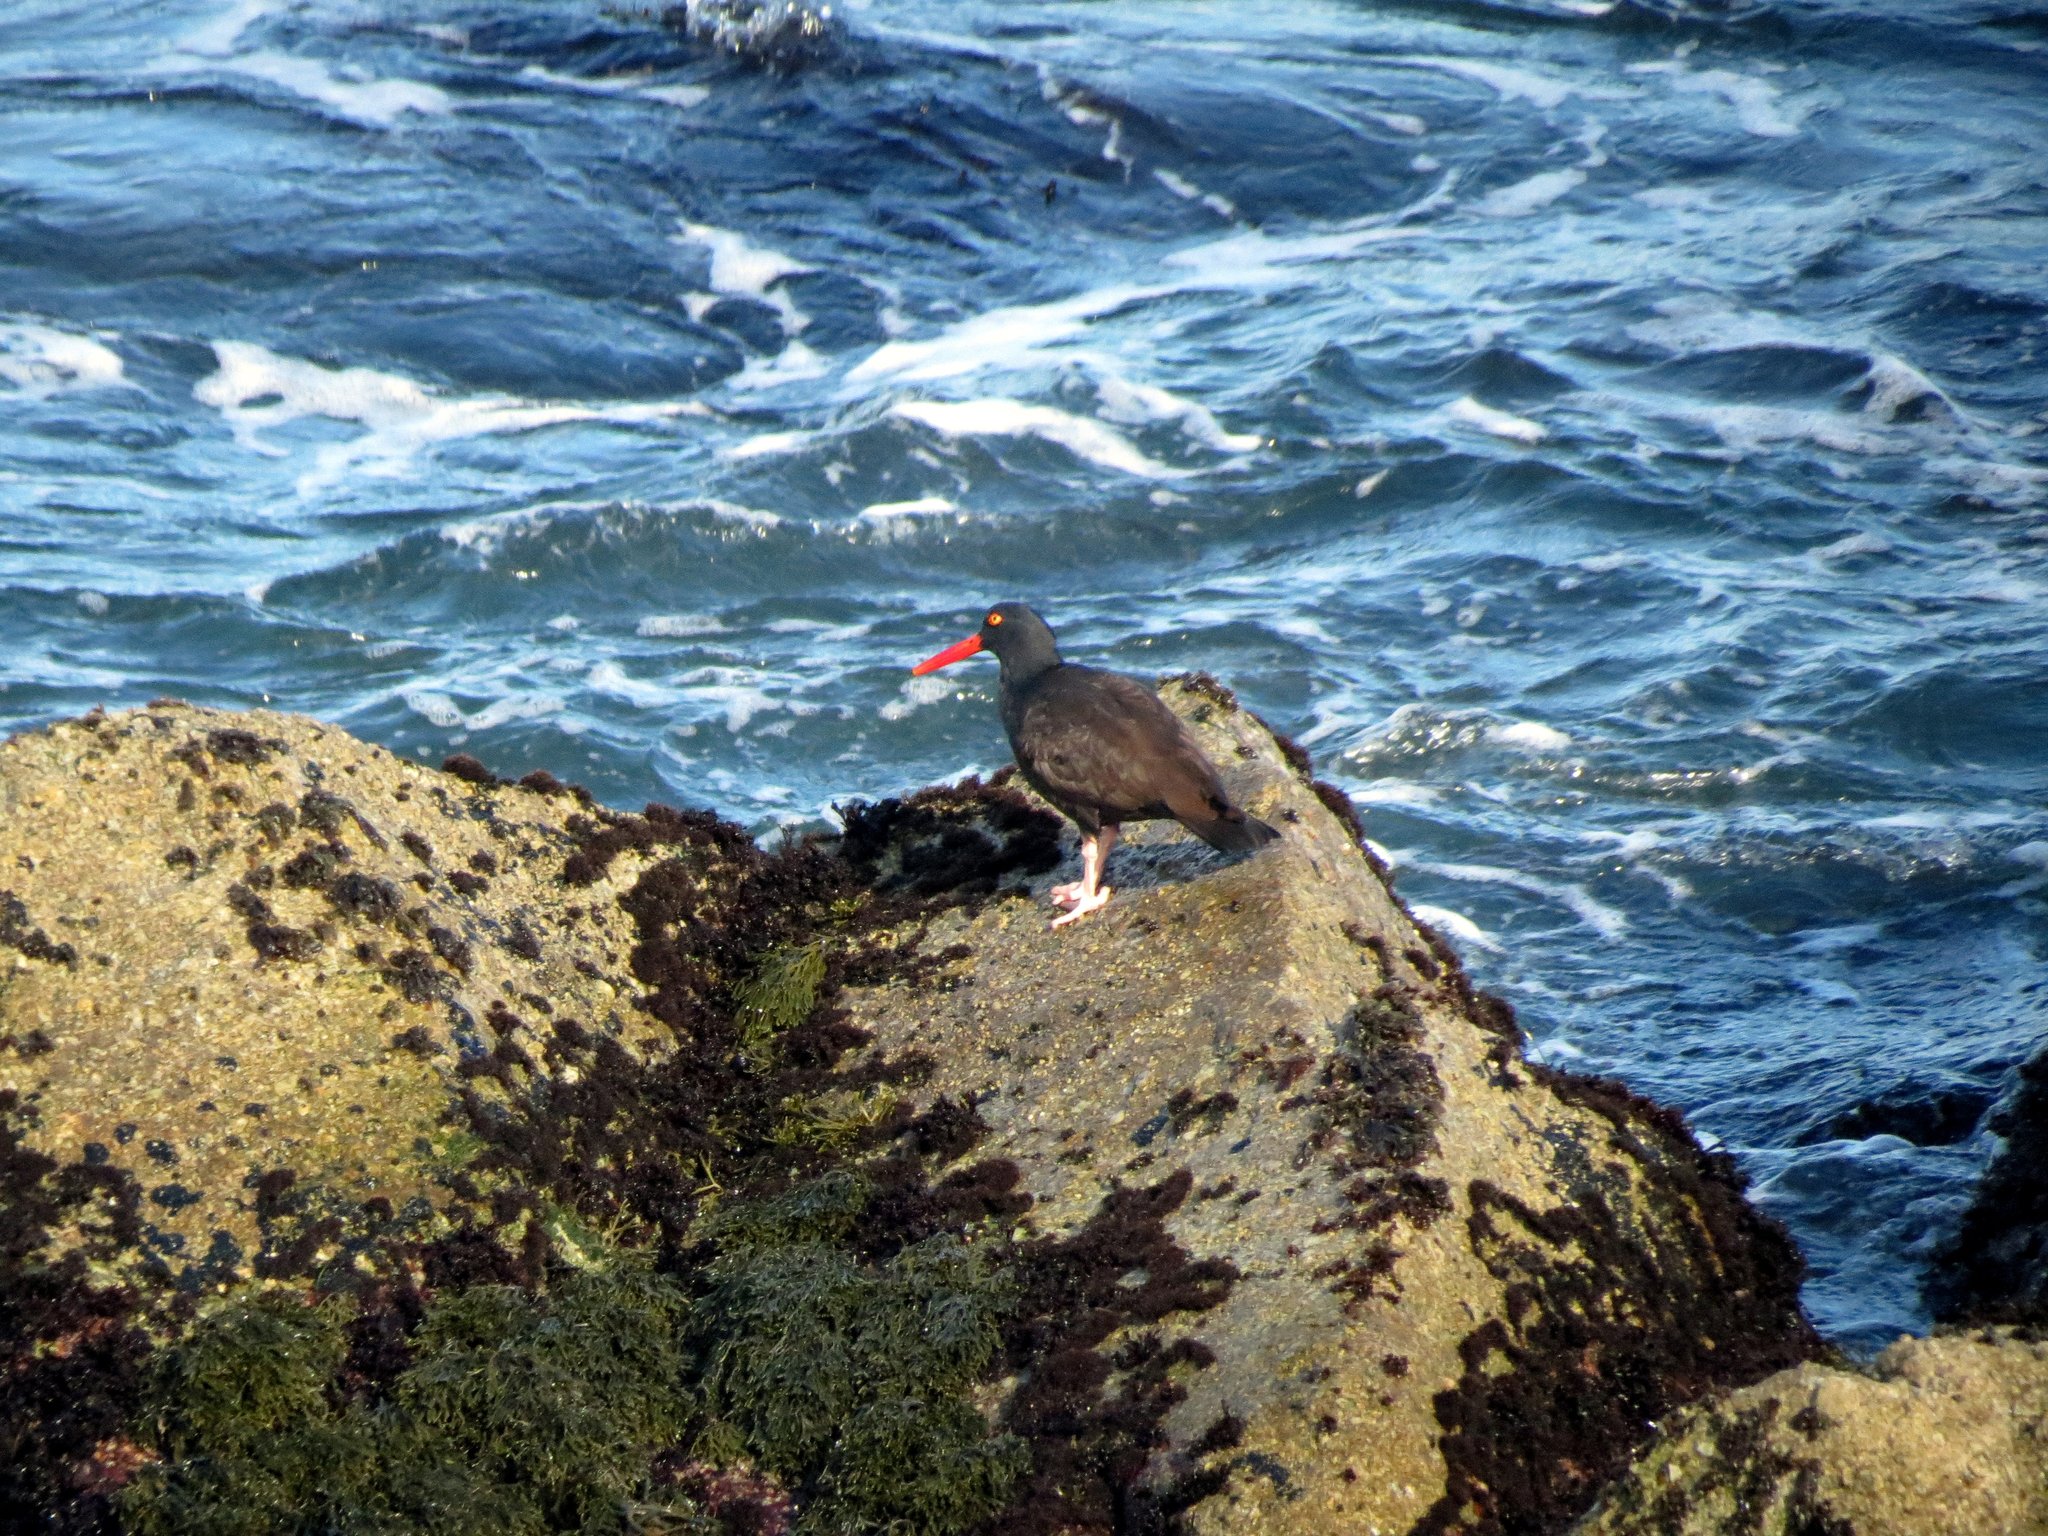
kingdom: Animalia
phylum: Chordata
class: Aves
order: Charadriiformes
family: Haematopodidae
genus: Haematopus
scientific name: Haematopus bachmani
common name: Black oystercatcher
